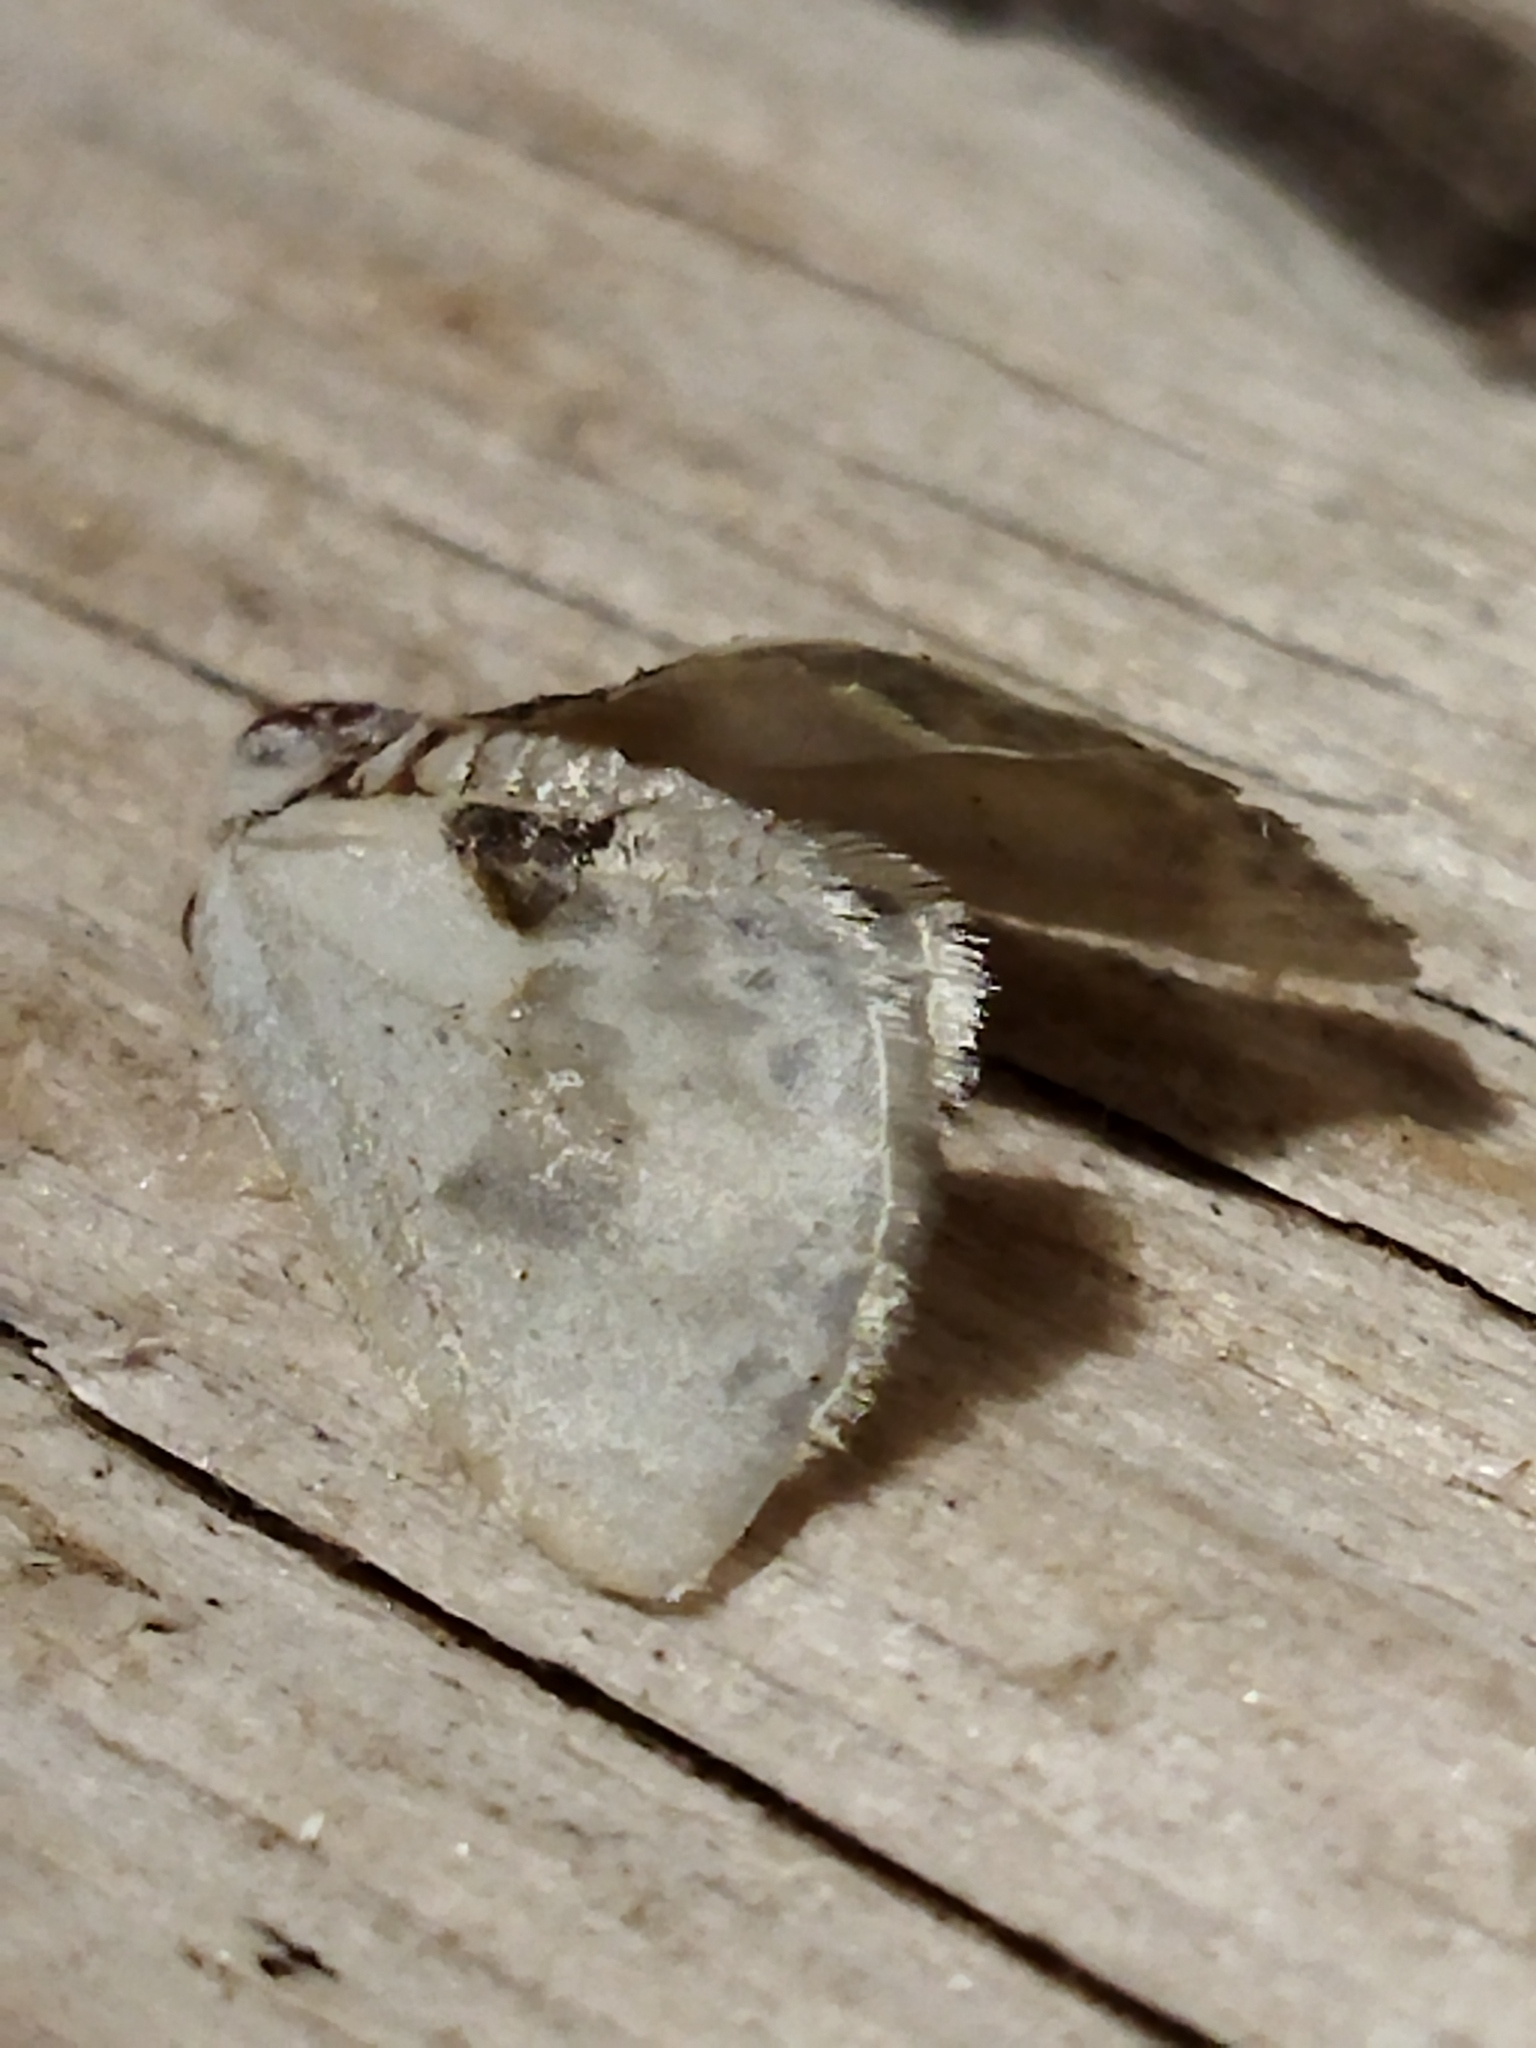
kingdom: Animalia
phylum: Arthropoda
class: Insecta
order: Lepidoptera
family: Drepanidae
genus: Cilix
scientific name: Cilix glaucata
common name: Chinese character
